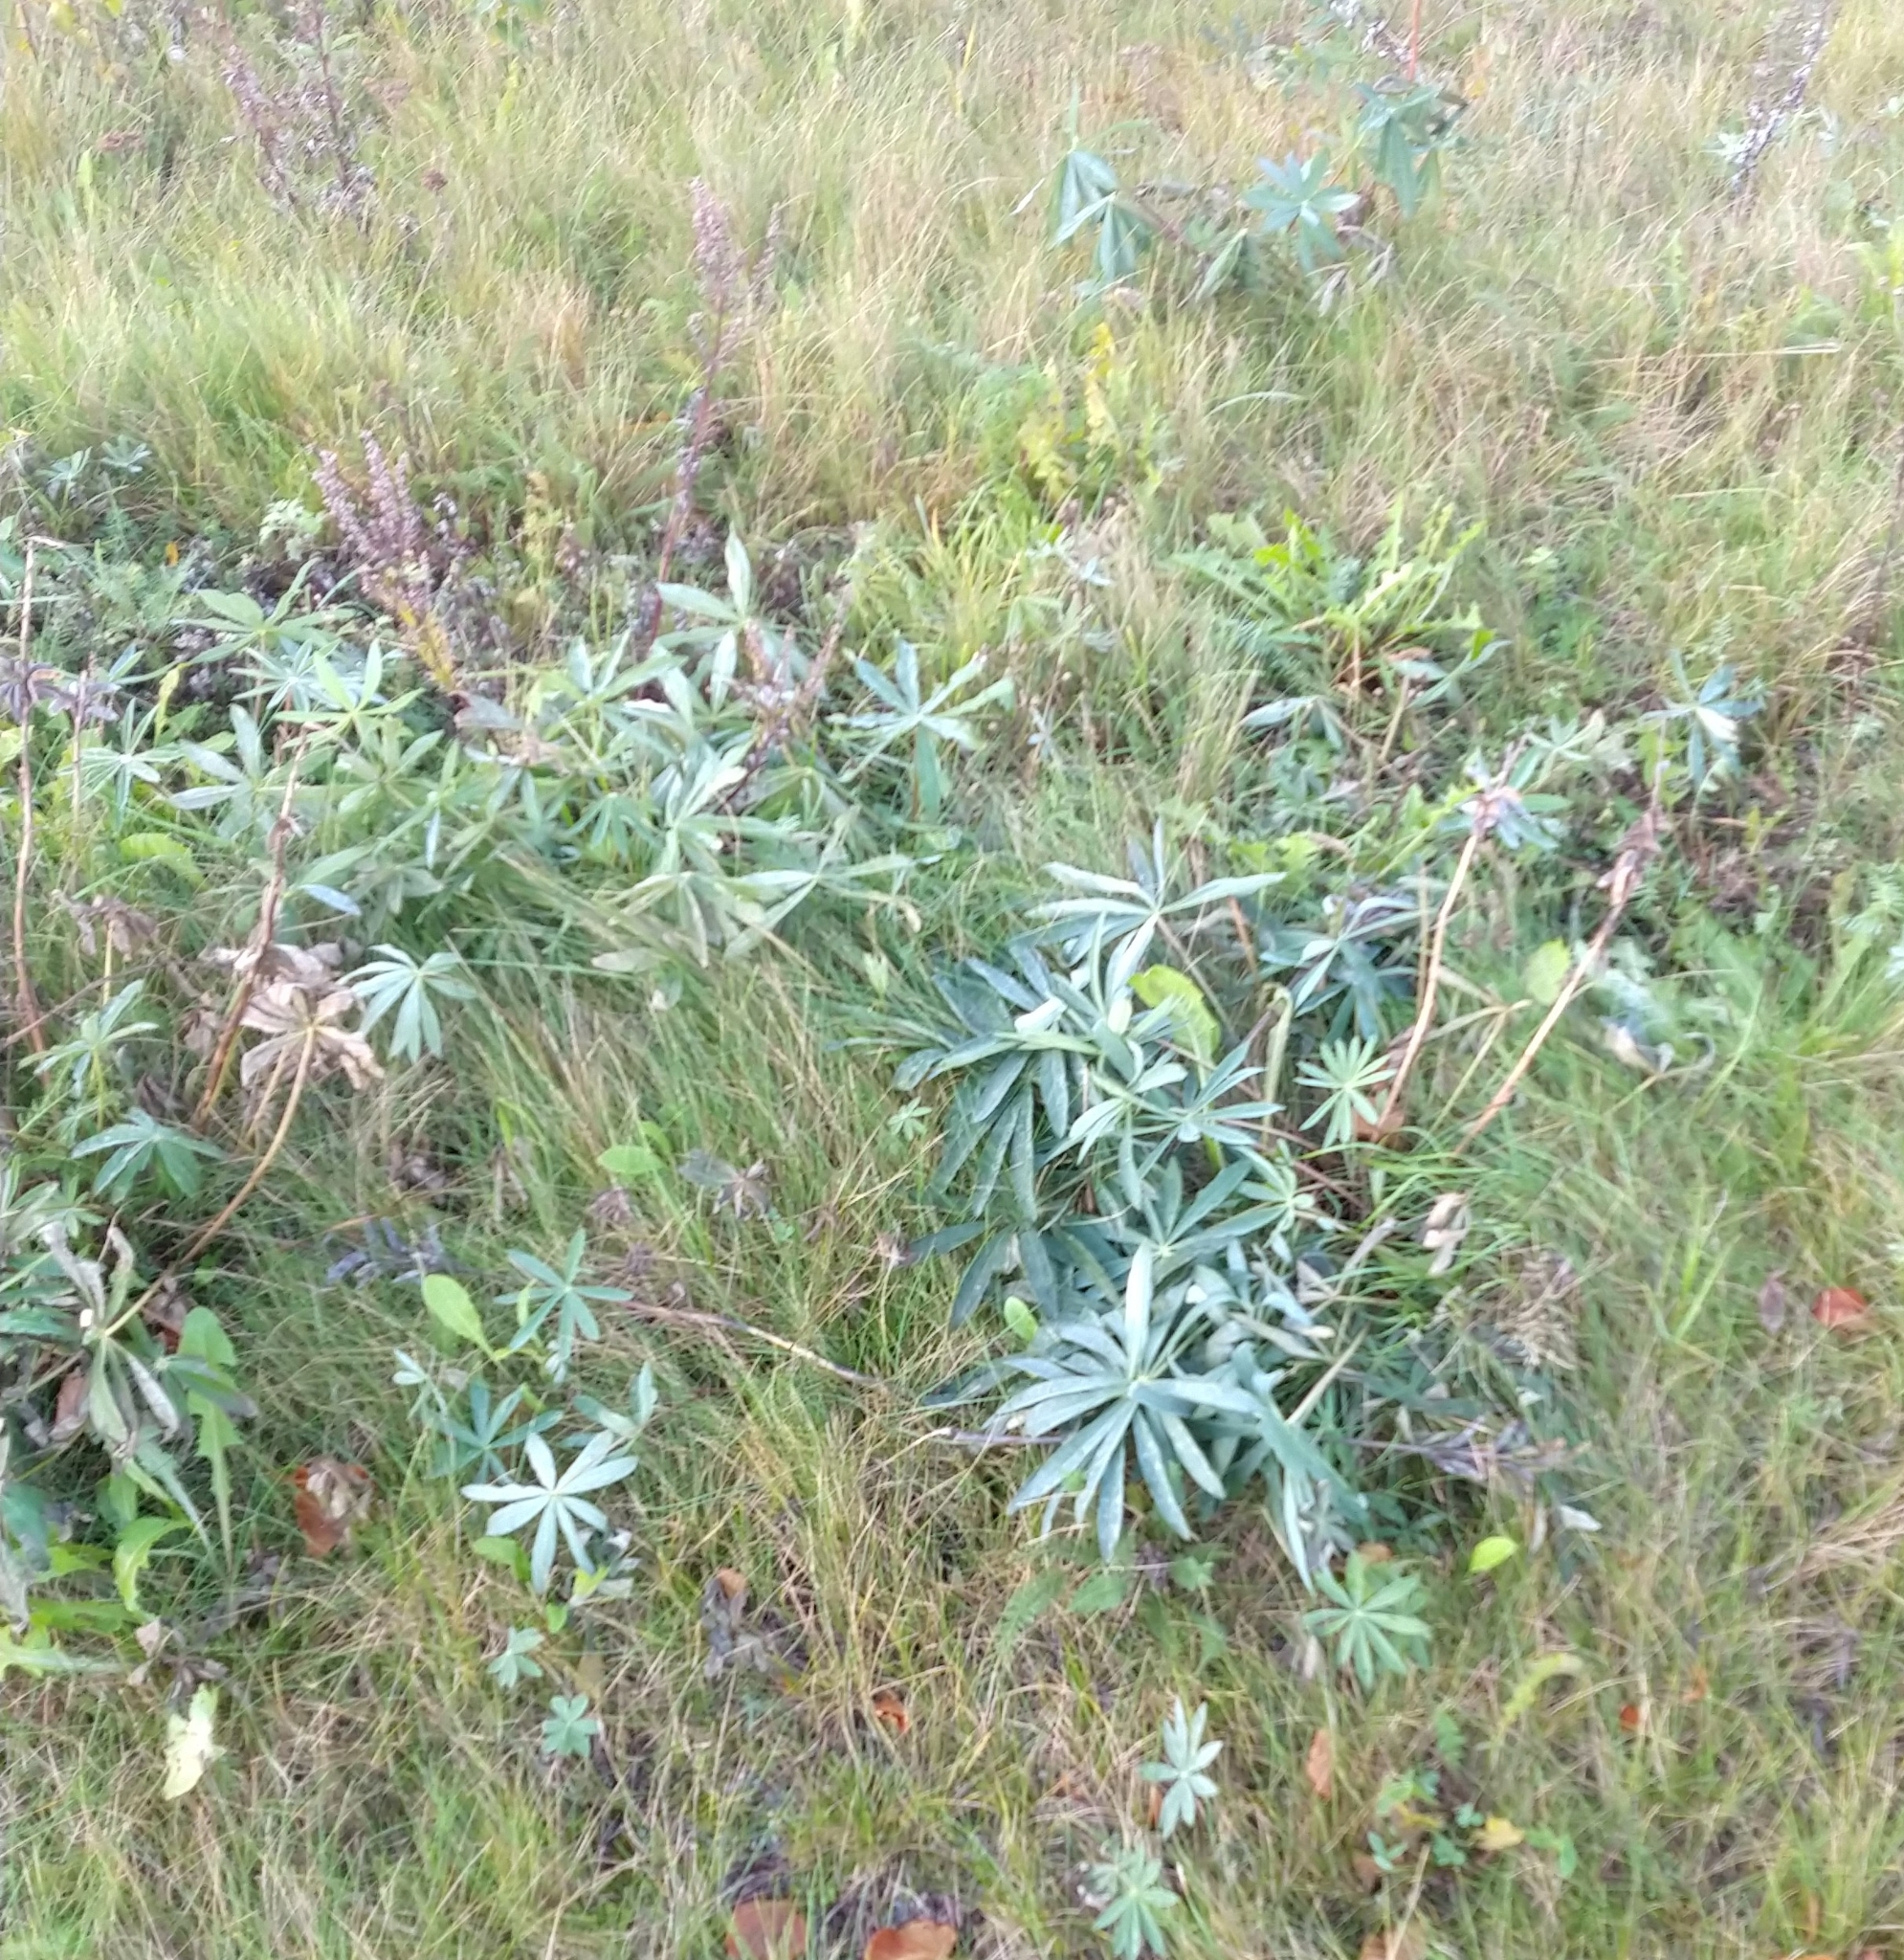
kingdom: Plantae
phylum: Tracheophyta
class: Magnoliopsida
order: Fabales
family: Fabaceae
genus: Lupinus
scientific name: Lupinus polyphyllus
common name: Garden lupin
